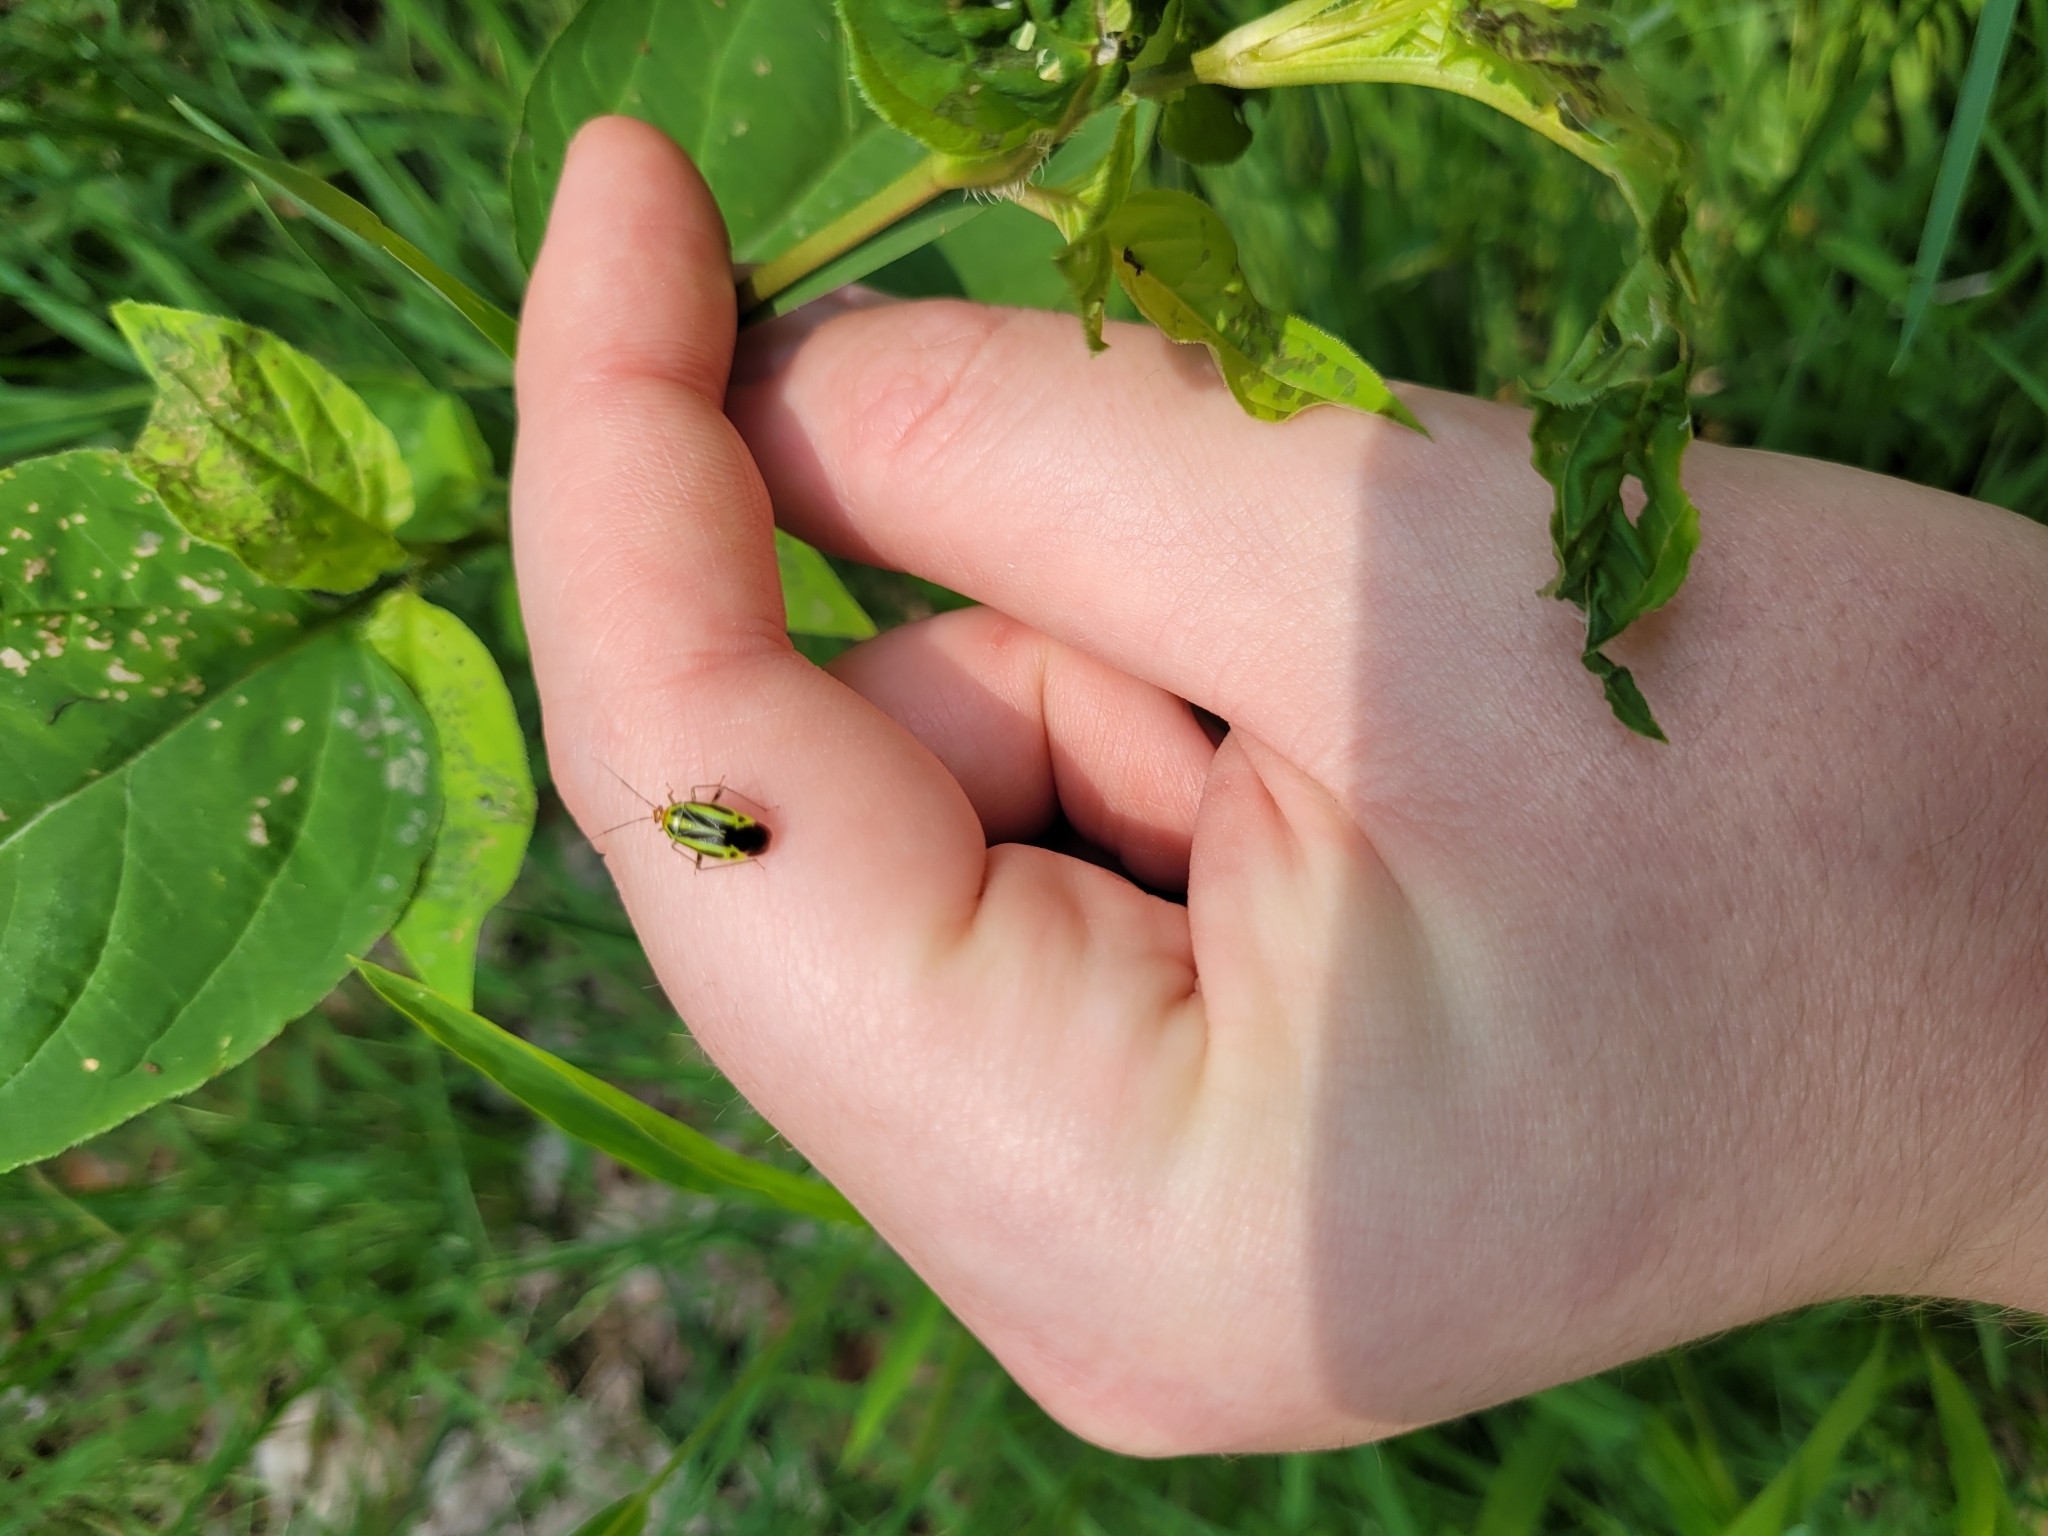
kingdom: Animalia
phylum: Arthropoda
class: Insecta
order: Hemiptera
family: Miridae
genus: Poecilocapsus
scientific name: Poecilocapsus lineatus
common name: Four-lined plant bug
